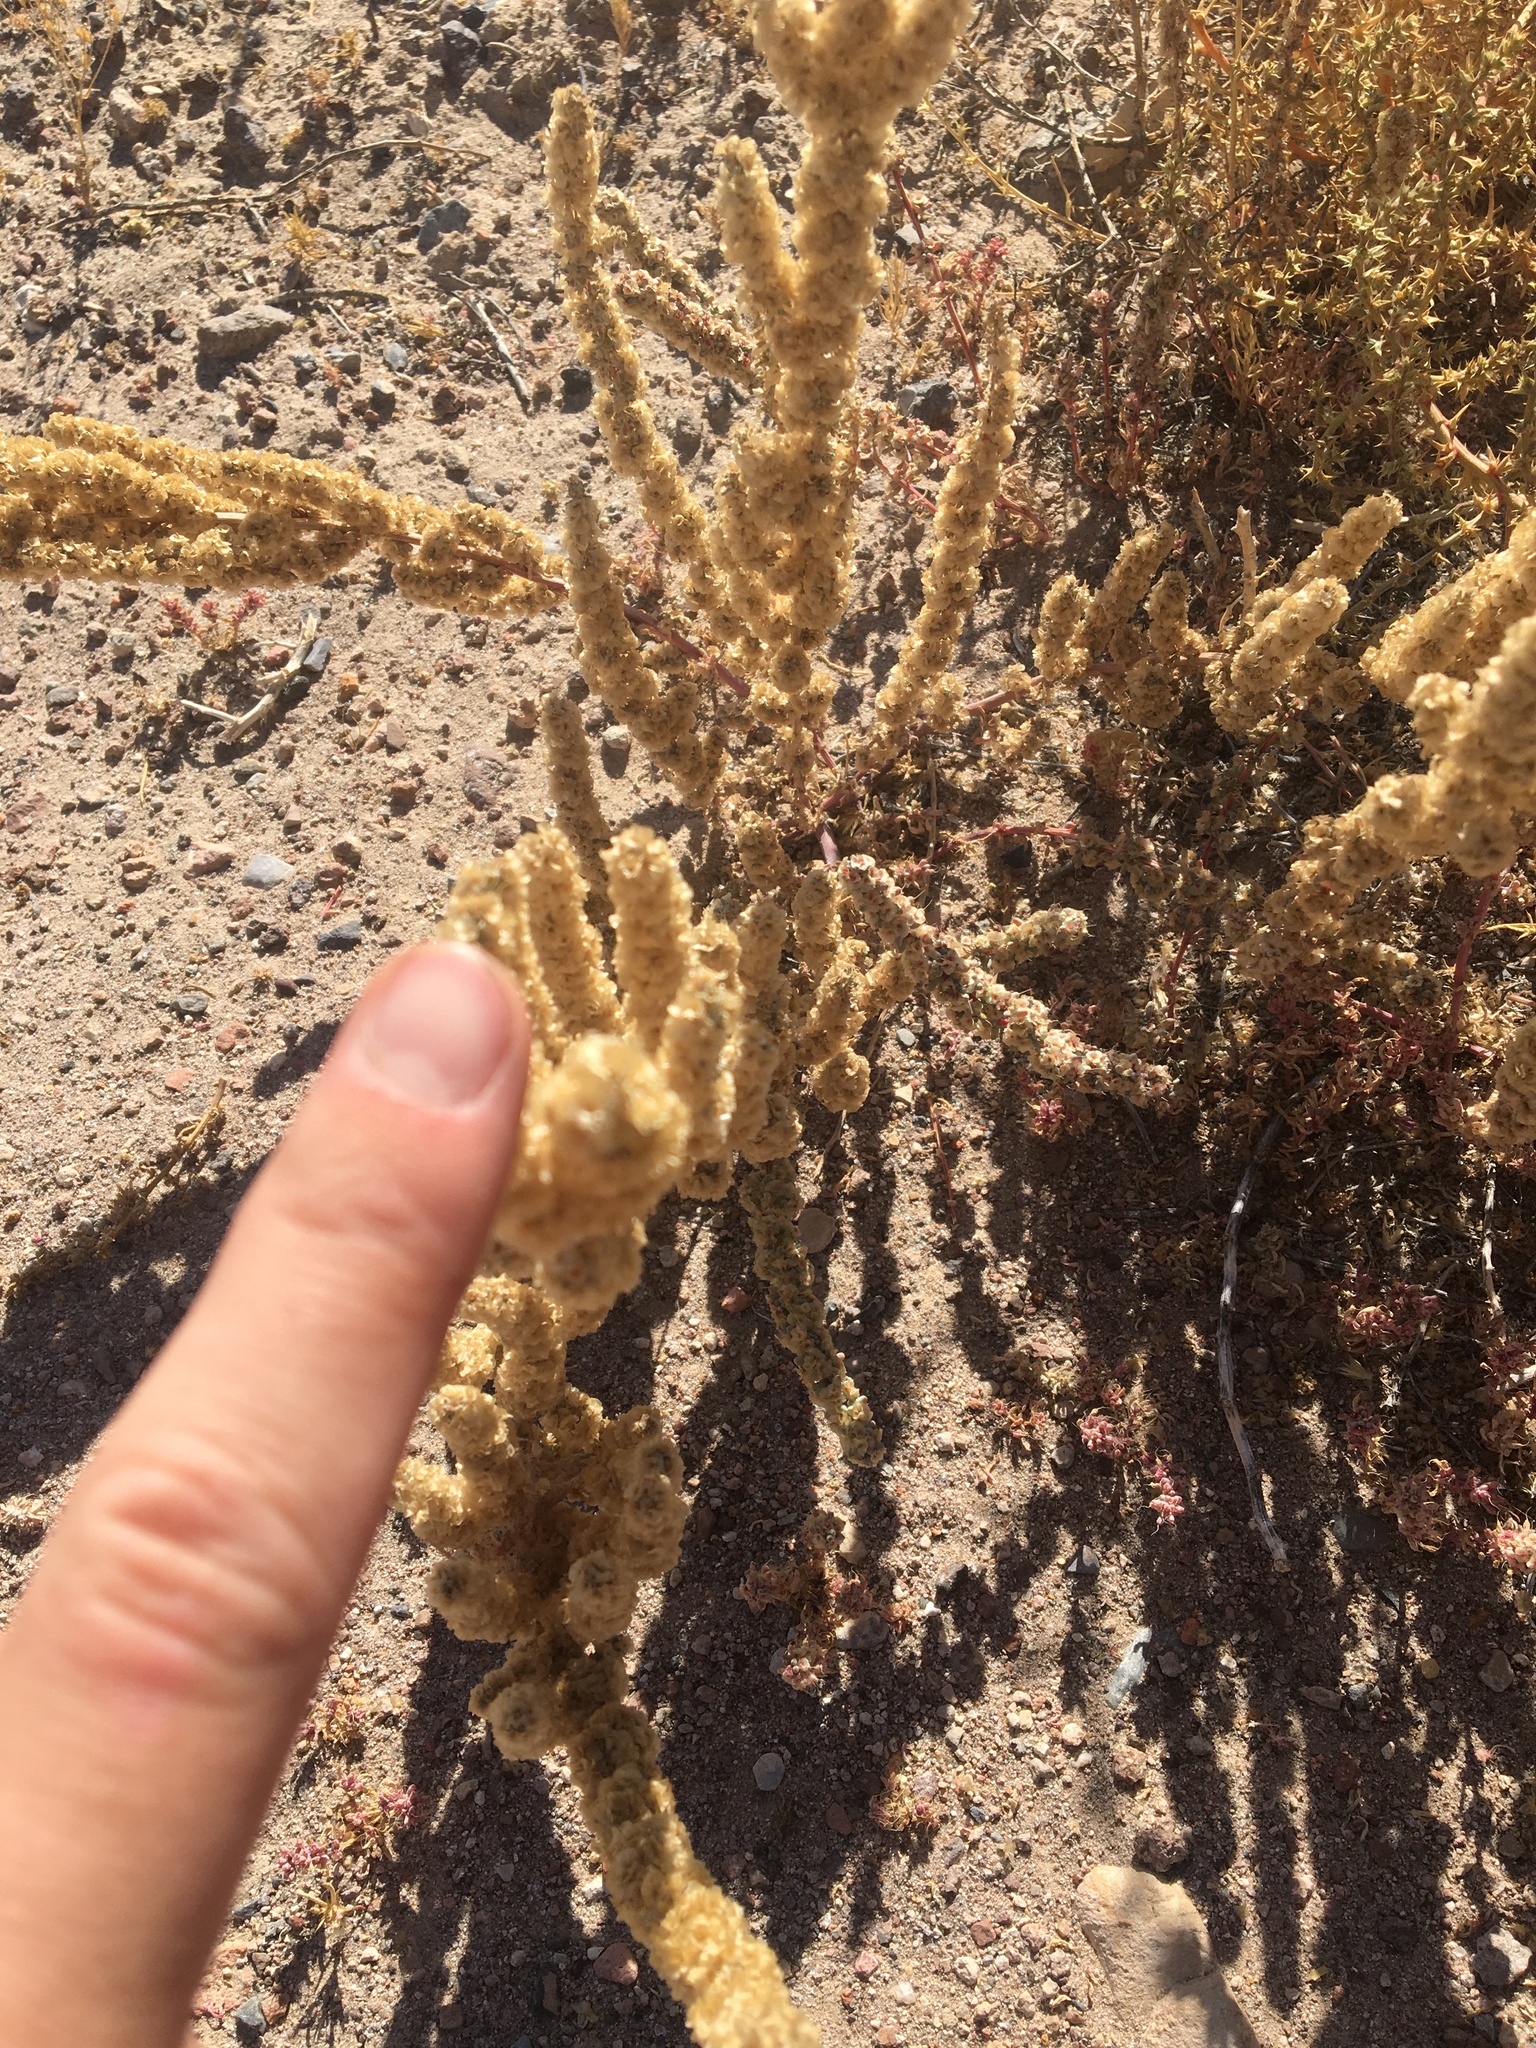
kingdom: Plantae
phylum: Tracheophyta
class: Magnoliopsida
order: Caryophyllales
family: Amaranthaceae
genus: Halogeton
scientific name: Halogeton glomeratus
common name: Saltlover
